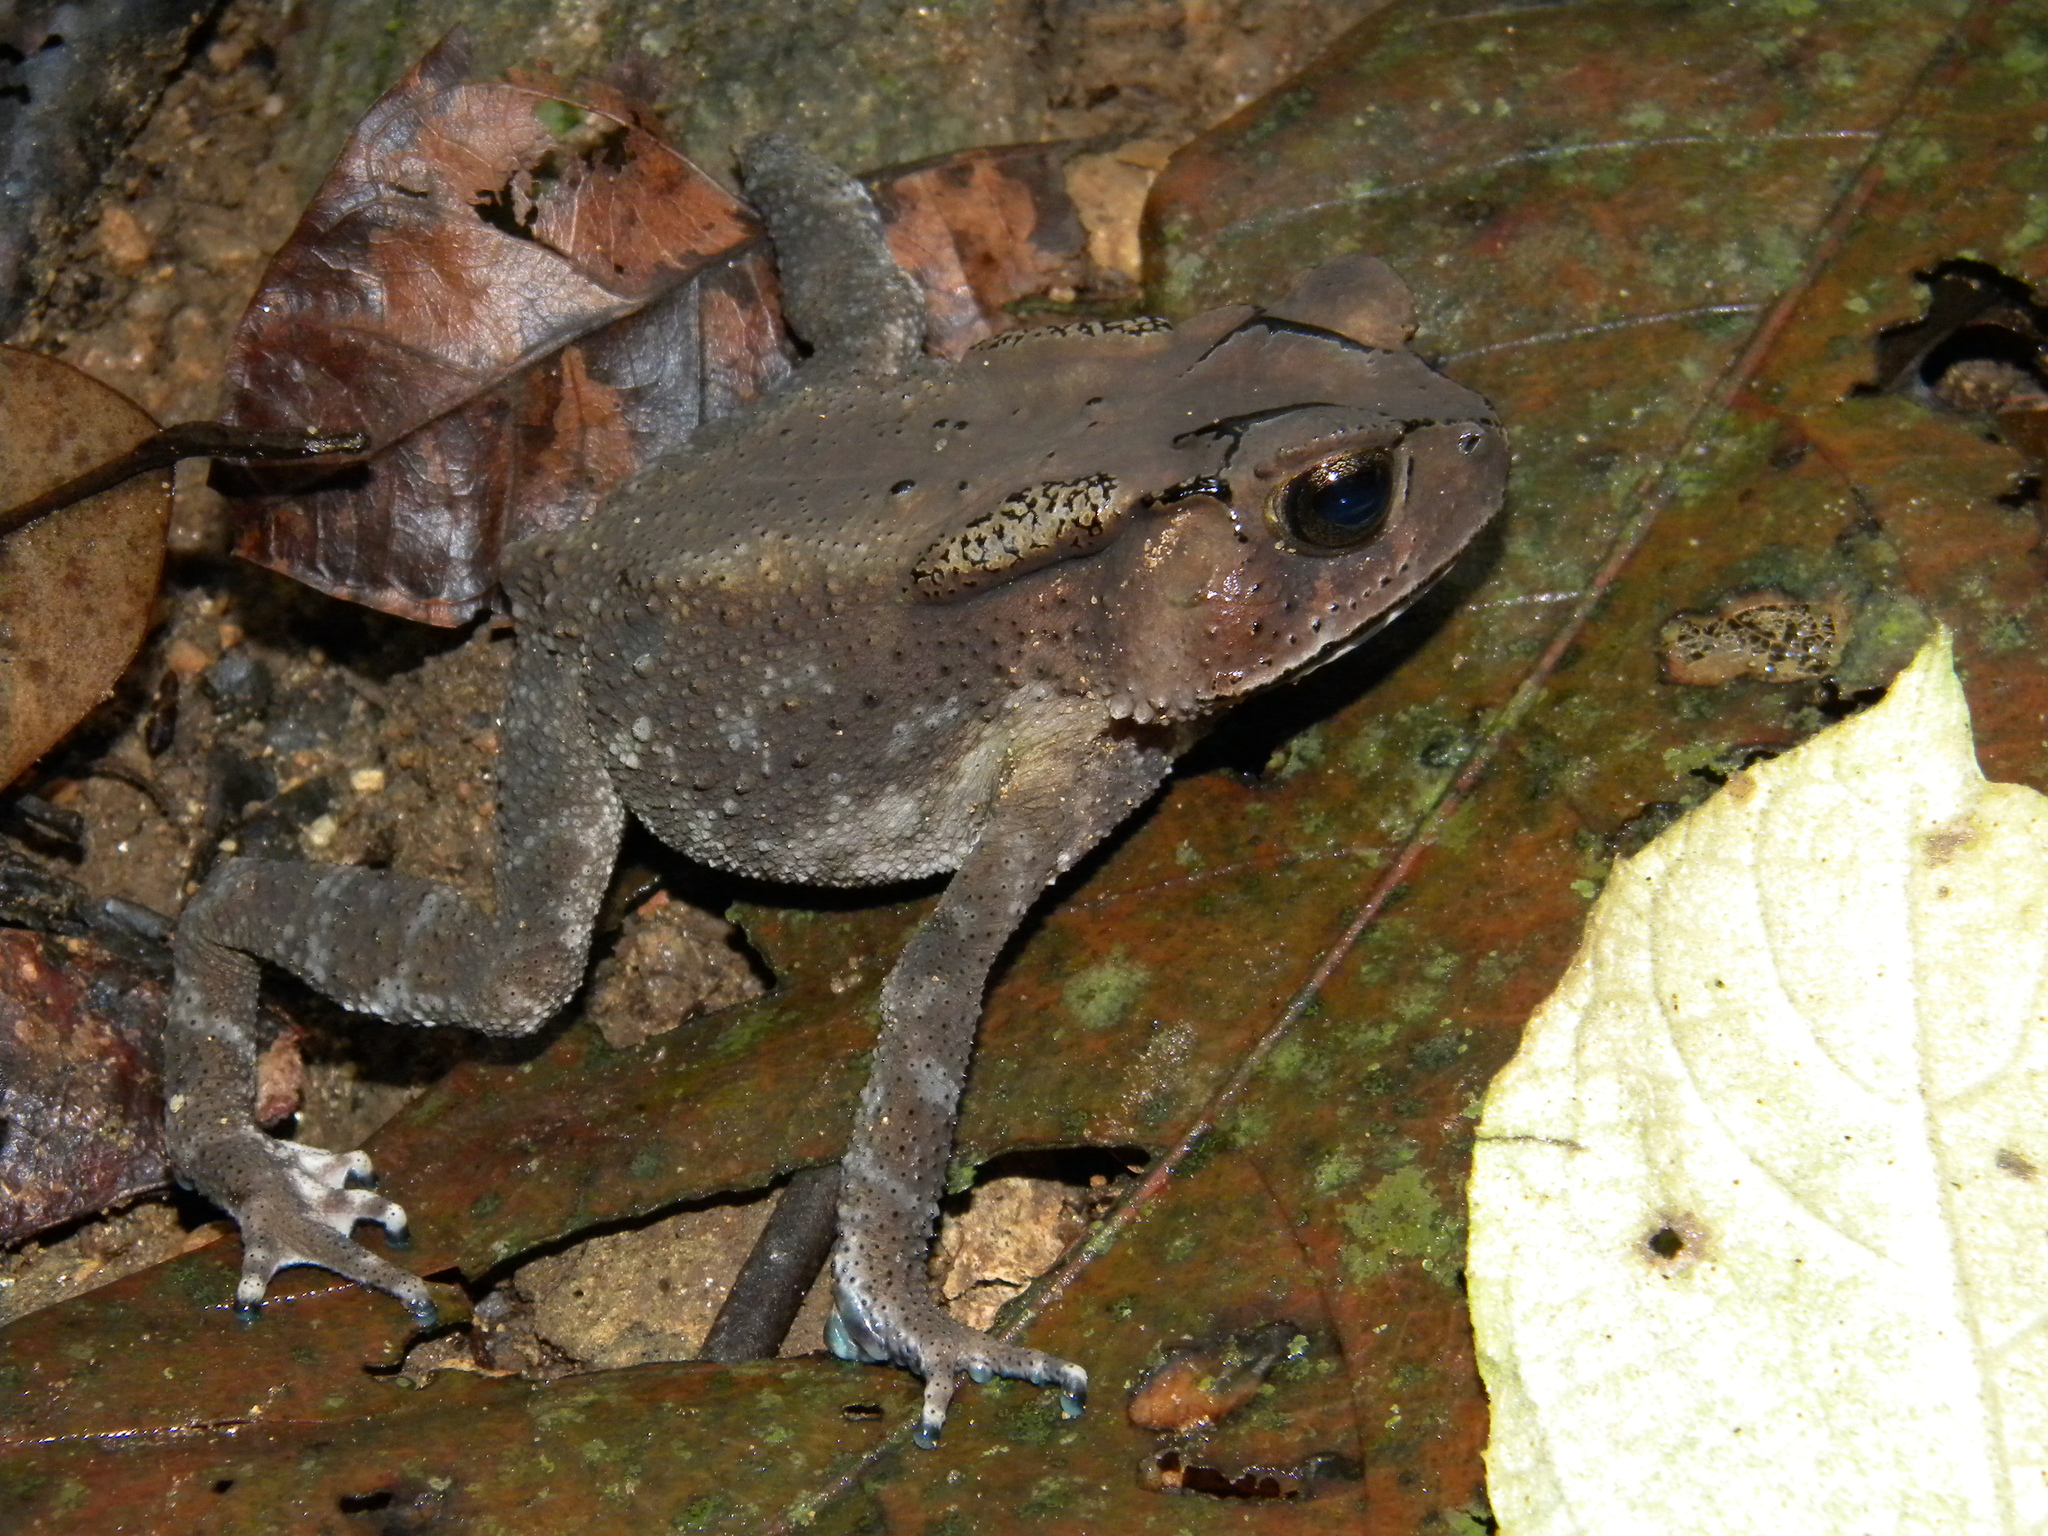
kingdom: Animalia
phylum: Chordata
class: Amphibia
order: Anura
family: Bufonidae
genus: Duttaphrynus
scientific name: Duttaphrynus parietalis
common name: Indian toad
